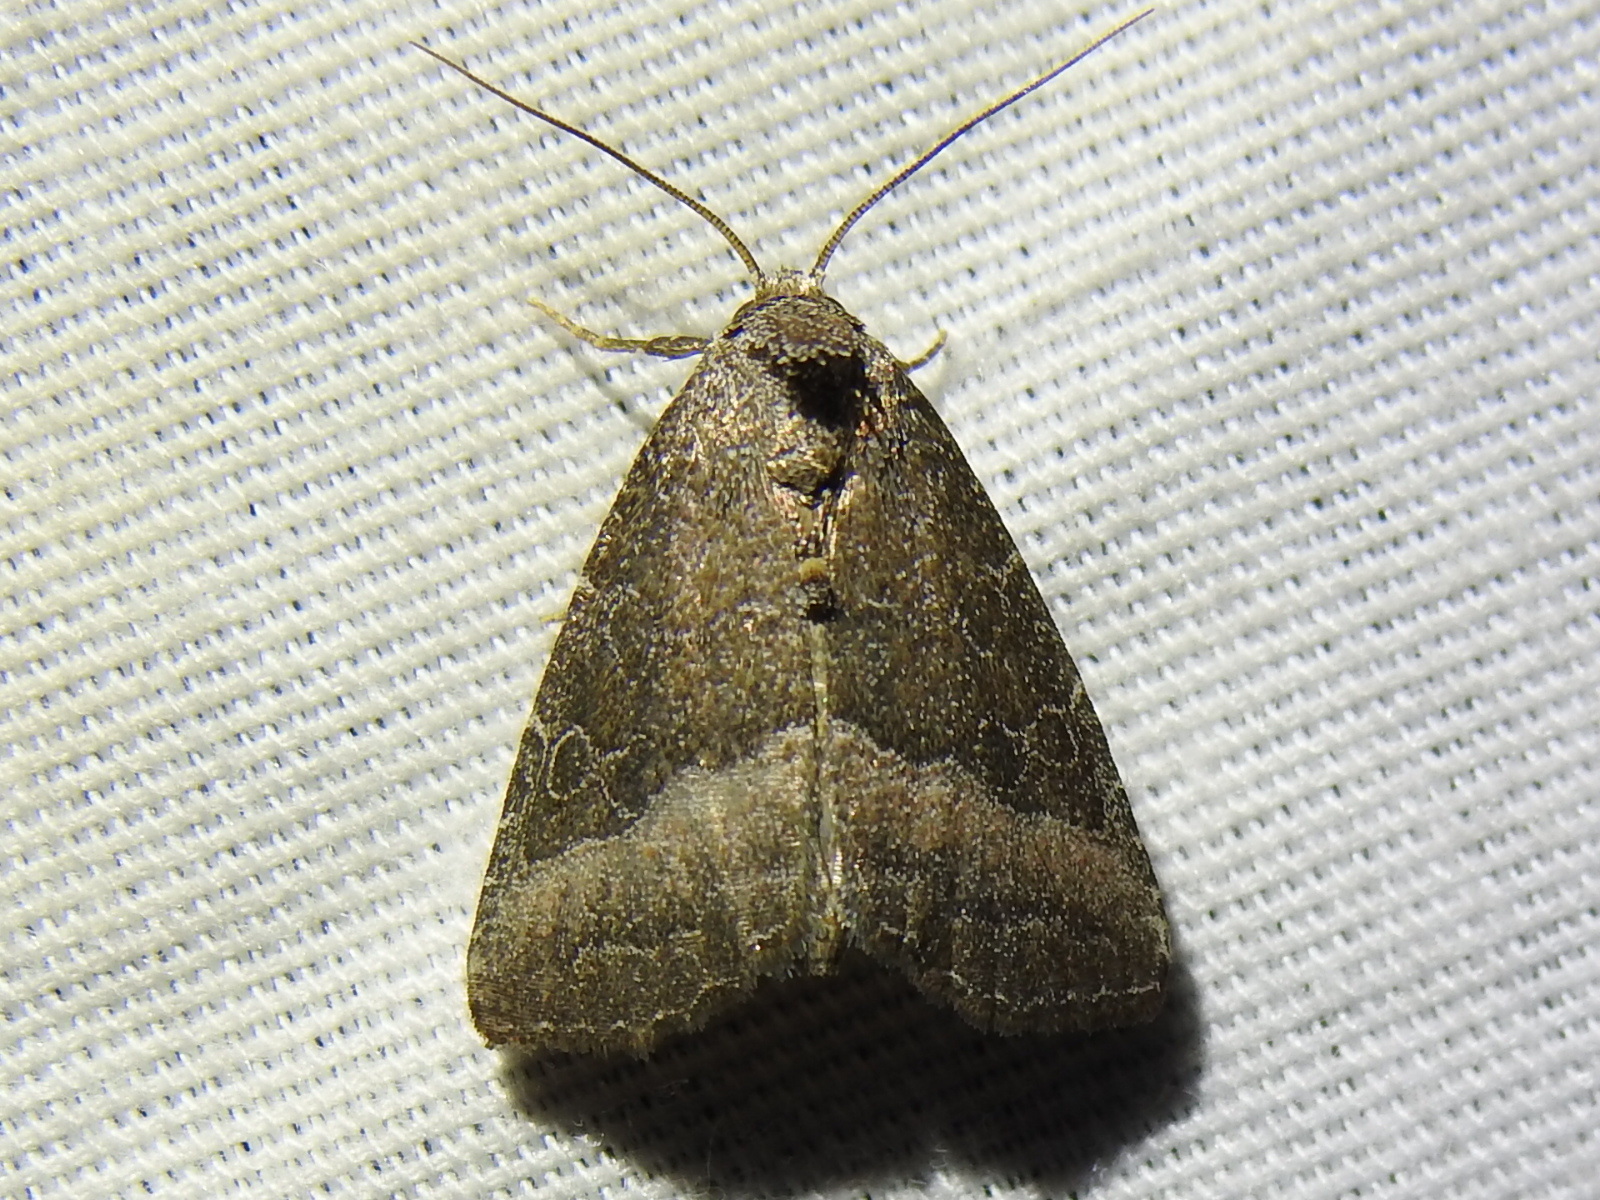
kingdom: Animalia
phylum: Arthropoda
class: Insecta
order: Lepidoptera
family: Noctuidae
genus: Ogdoconta
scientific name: Ogdoconta cinereola
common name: Common pinkband
